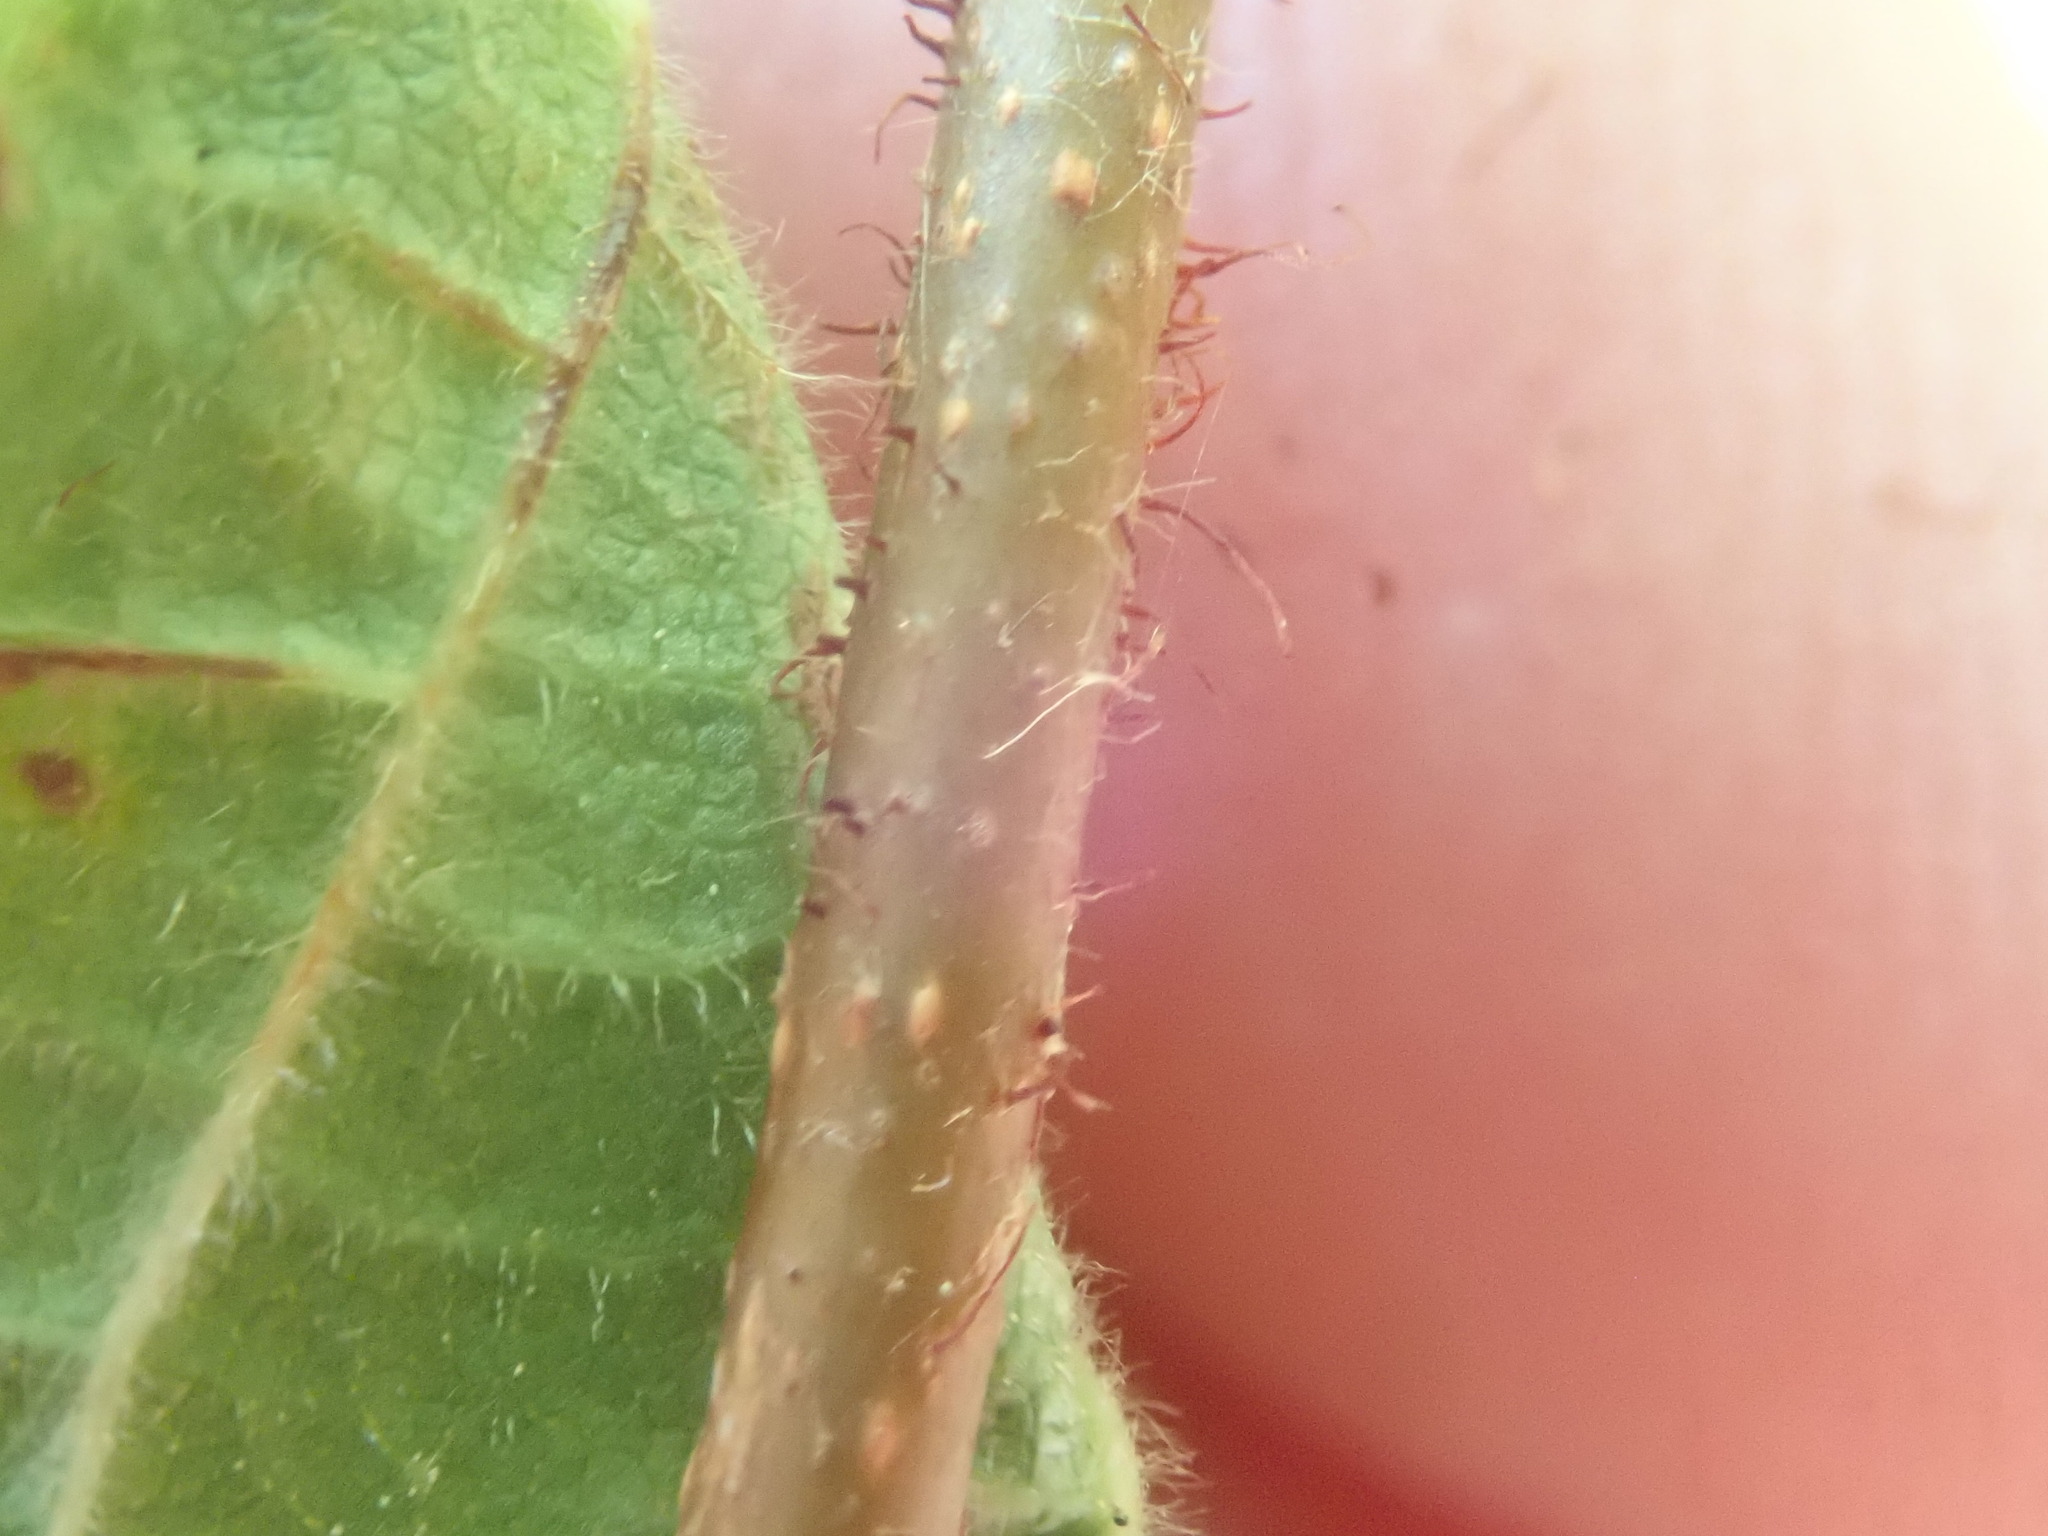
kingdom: Plantae
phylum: Tracheophyta
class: Magnoliopsida
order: Fagales
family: Betulaceae
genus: Corylus
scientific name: Corylus americana
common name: American hazel
